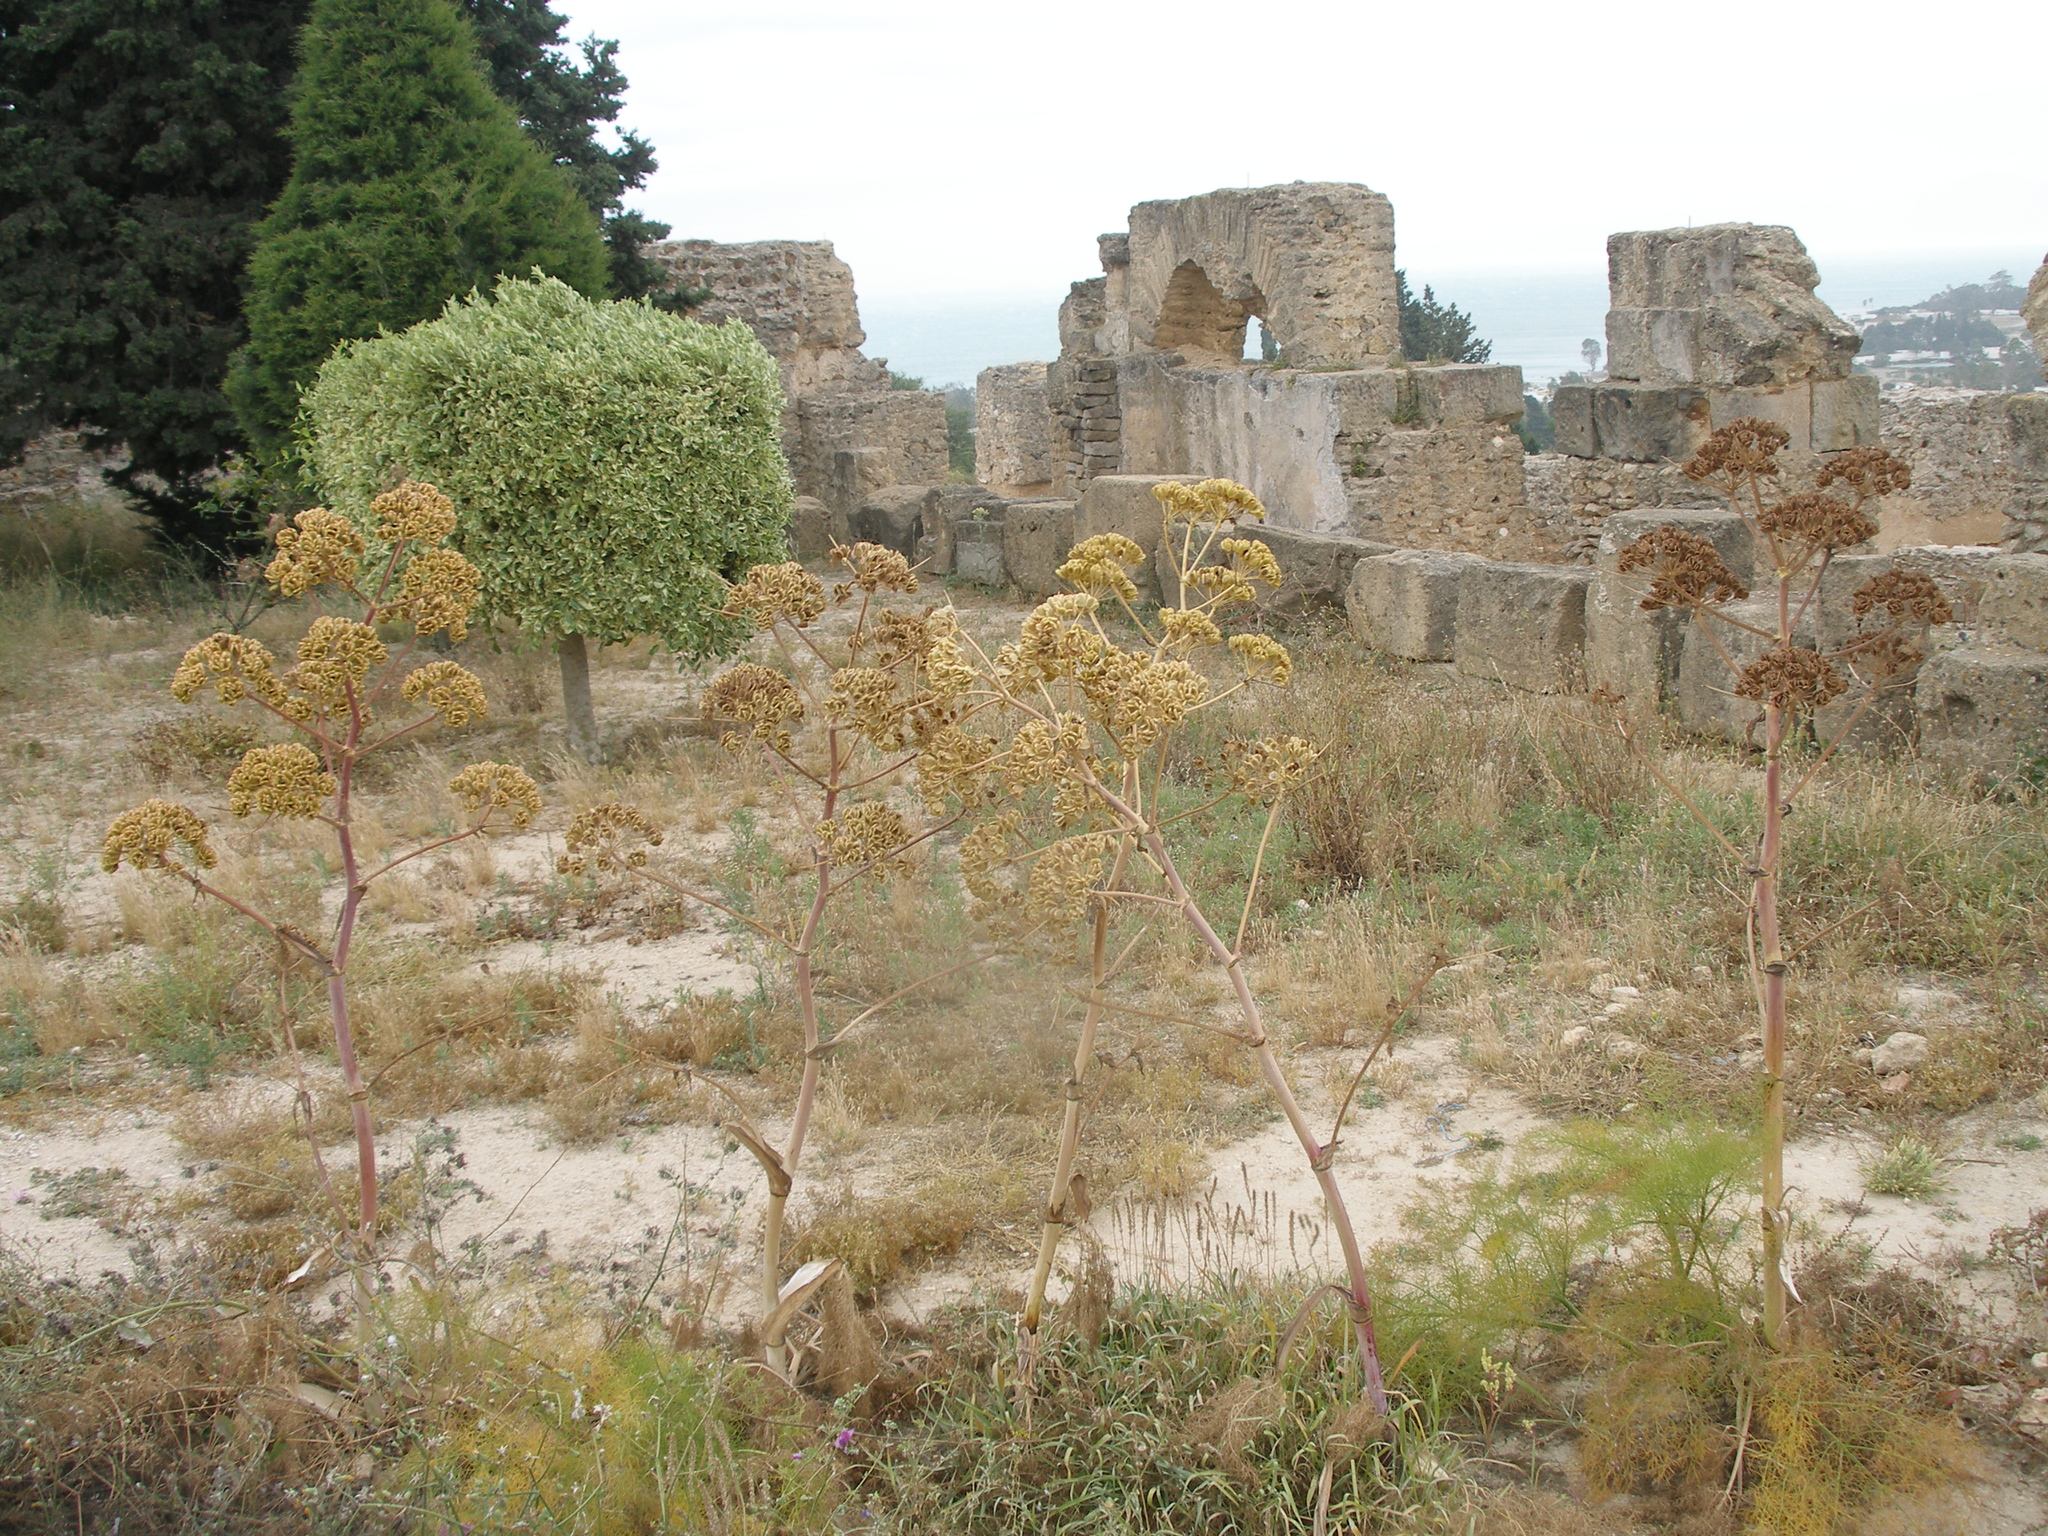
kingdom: Plantae
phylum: Tracheophyta
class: Magnoliopsida
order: Apiales
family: Apiaceae
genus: Thapsia
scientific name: Thapsia garganica
